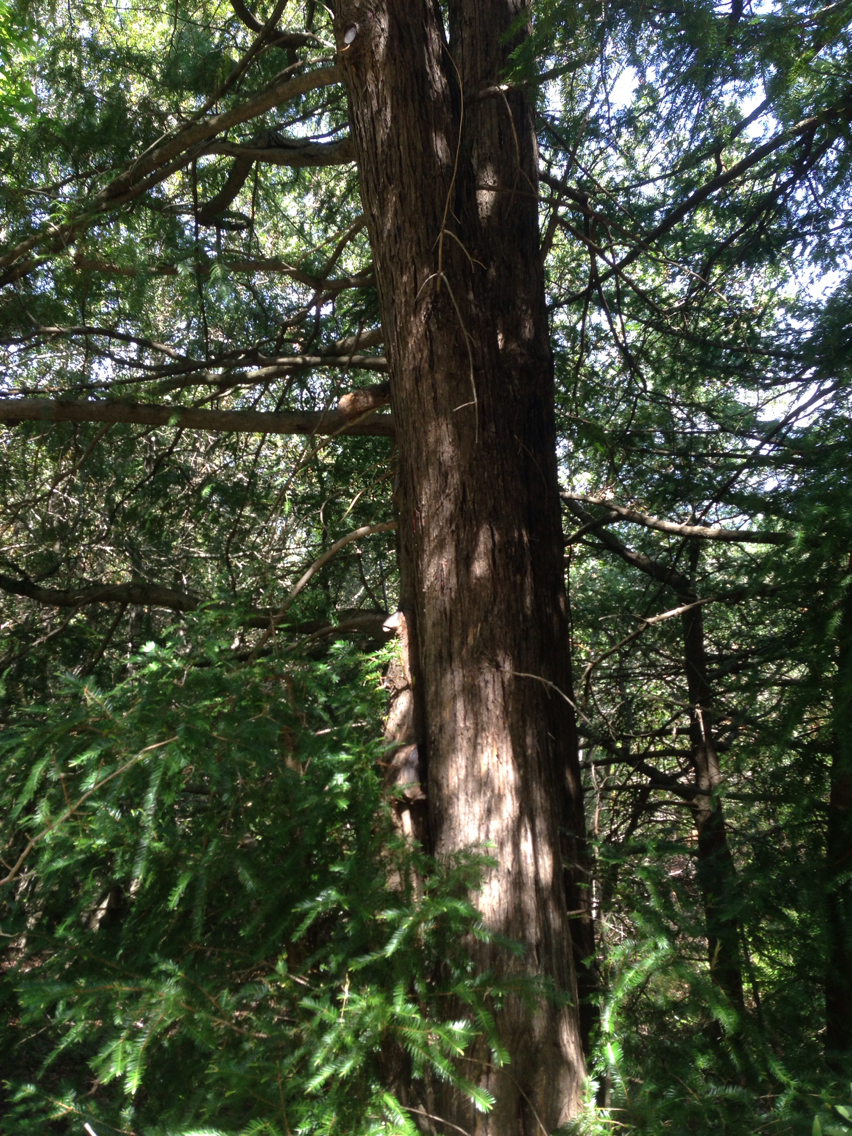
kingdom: Plantae
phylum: Tracheophyta
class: Pinopsida
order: Pinales
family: Taxaceae
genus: Torreya
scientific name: Torreya californica
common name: California torreya
